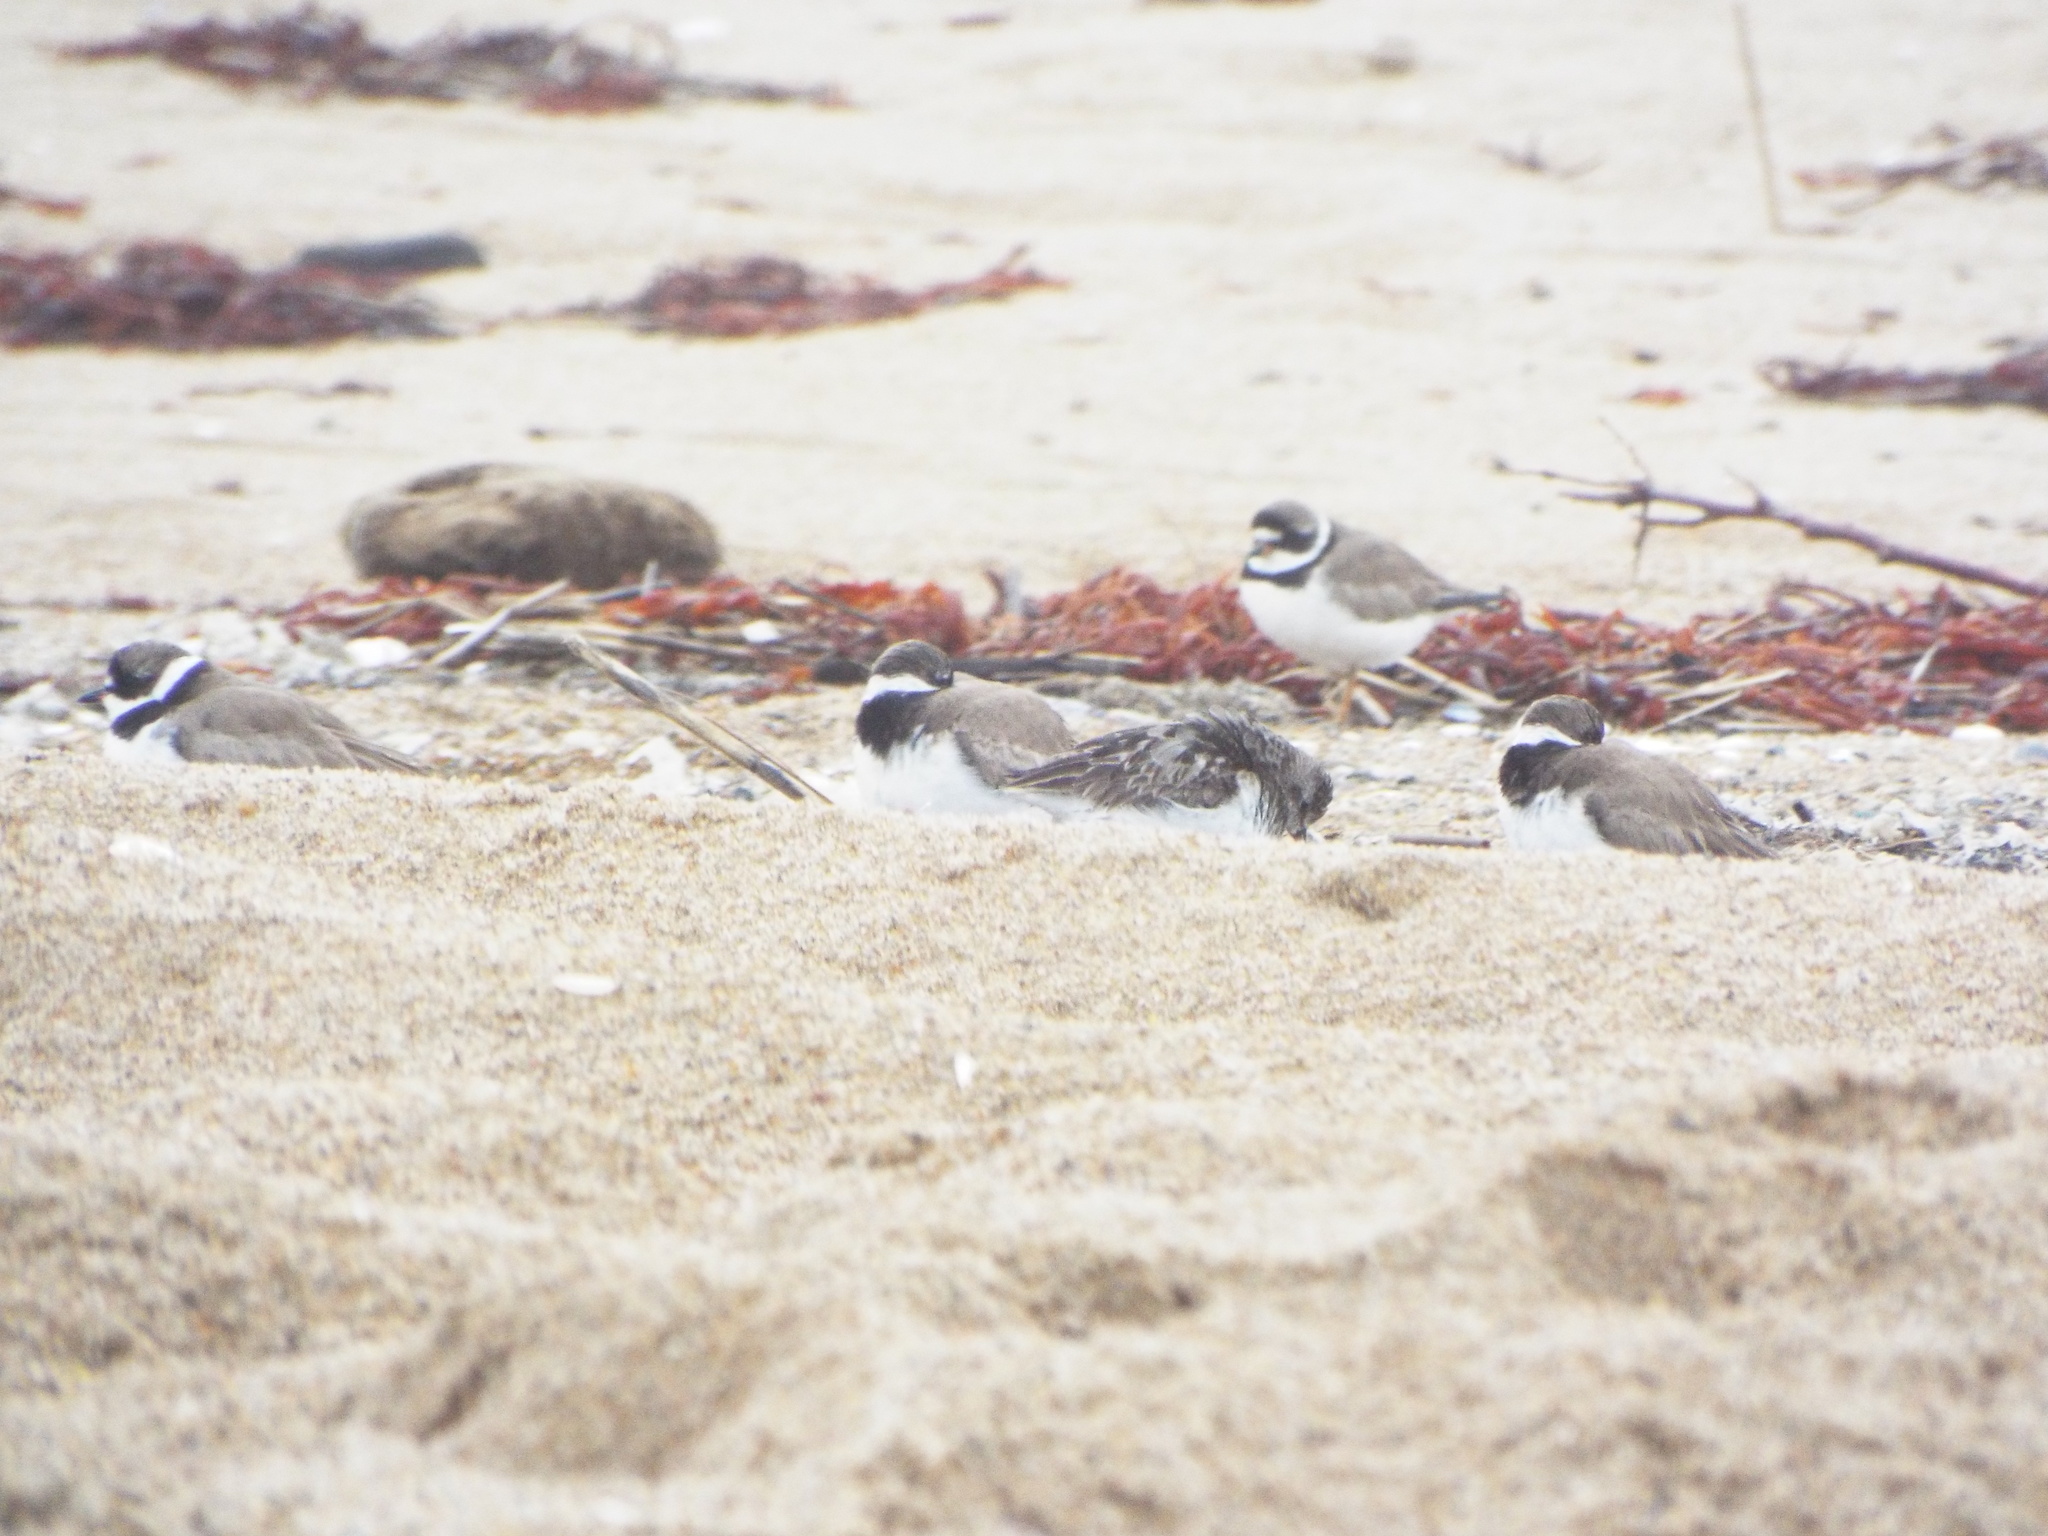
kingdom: Animalia
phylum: Chordata
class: Aves
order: Charadriiformes
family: Charadriidae
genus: Charadrius
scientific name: Charadrius semipalmatus
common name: Semipalmated plover
